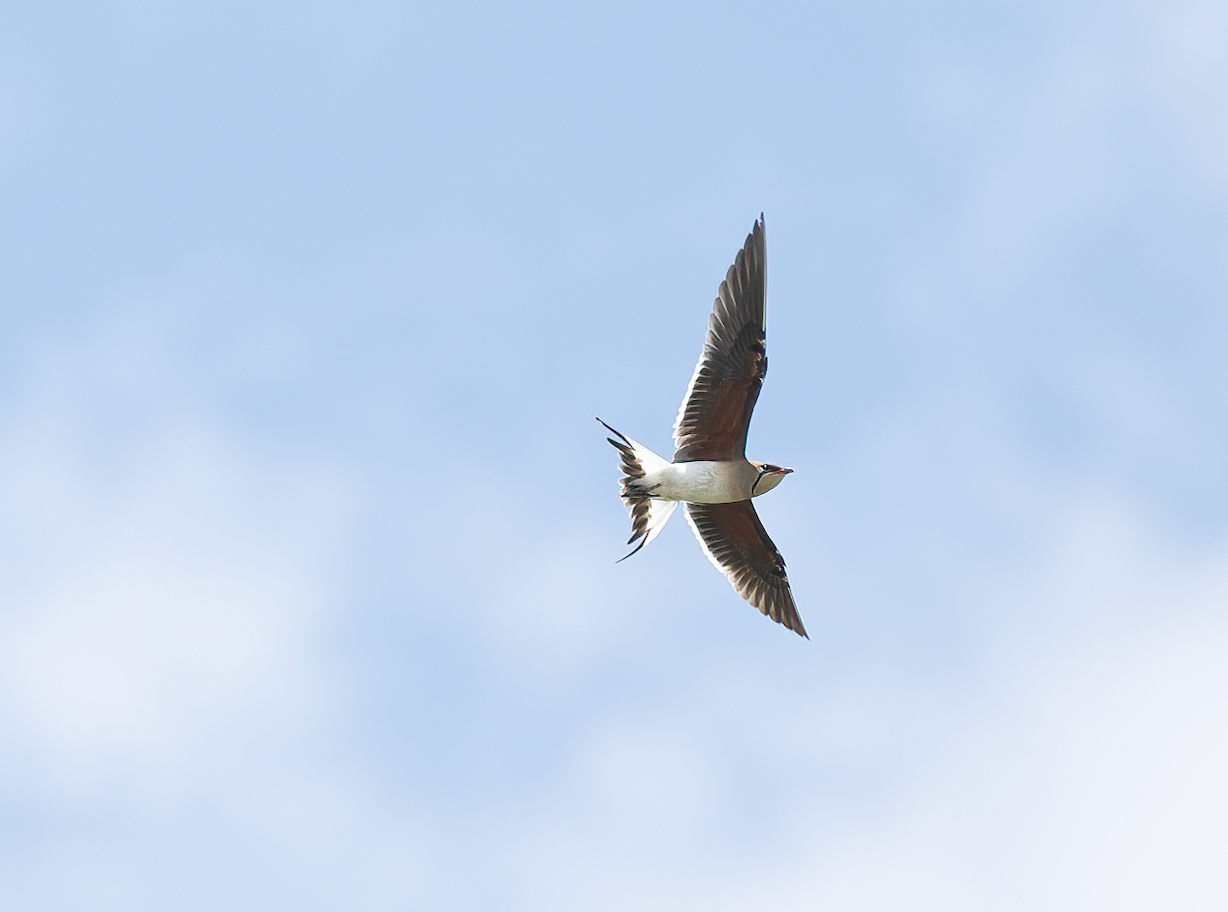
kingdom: Animalia
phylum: Chordata
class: Aves
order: Charadriiformes
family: Glareolidae
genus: Glareola
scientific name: Glareola pratincola
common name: Collared pratincole
